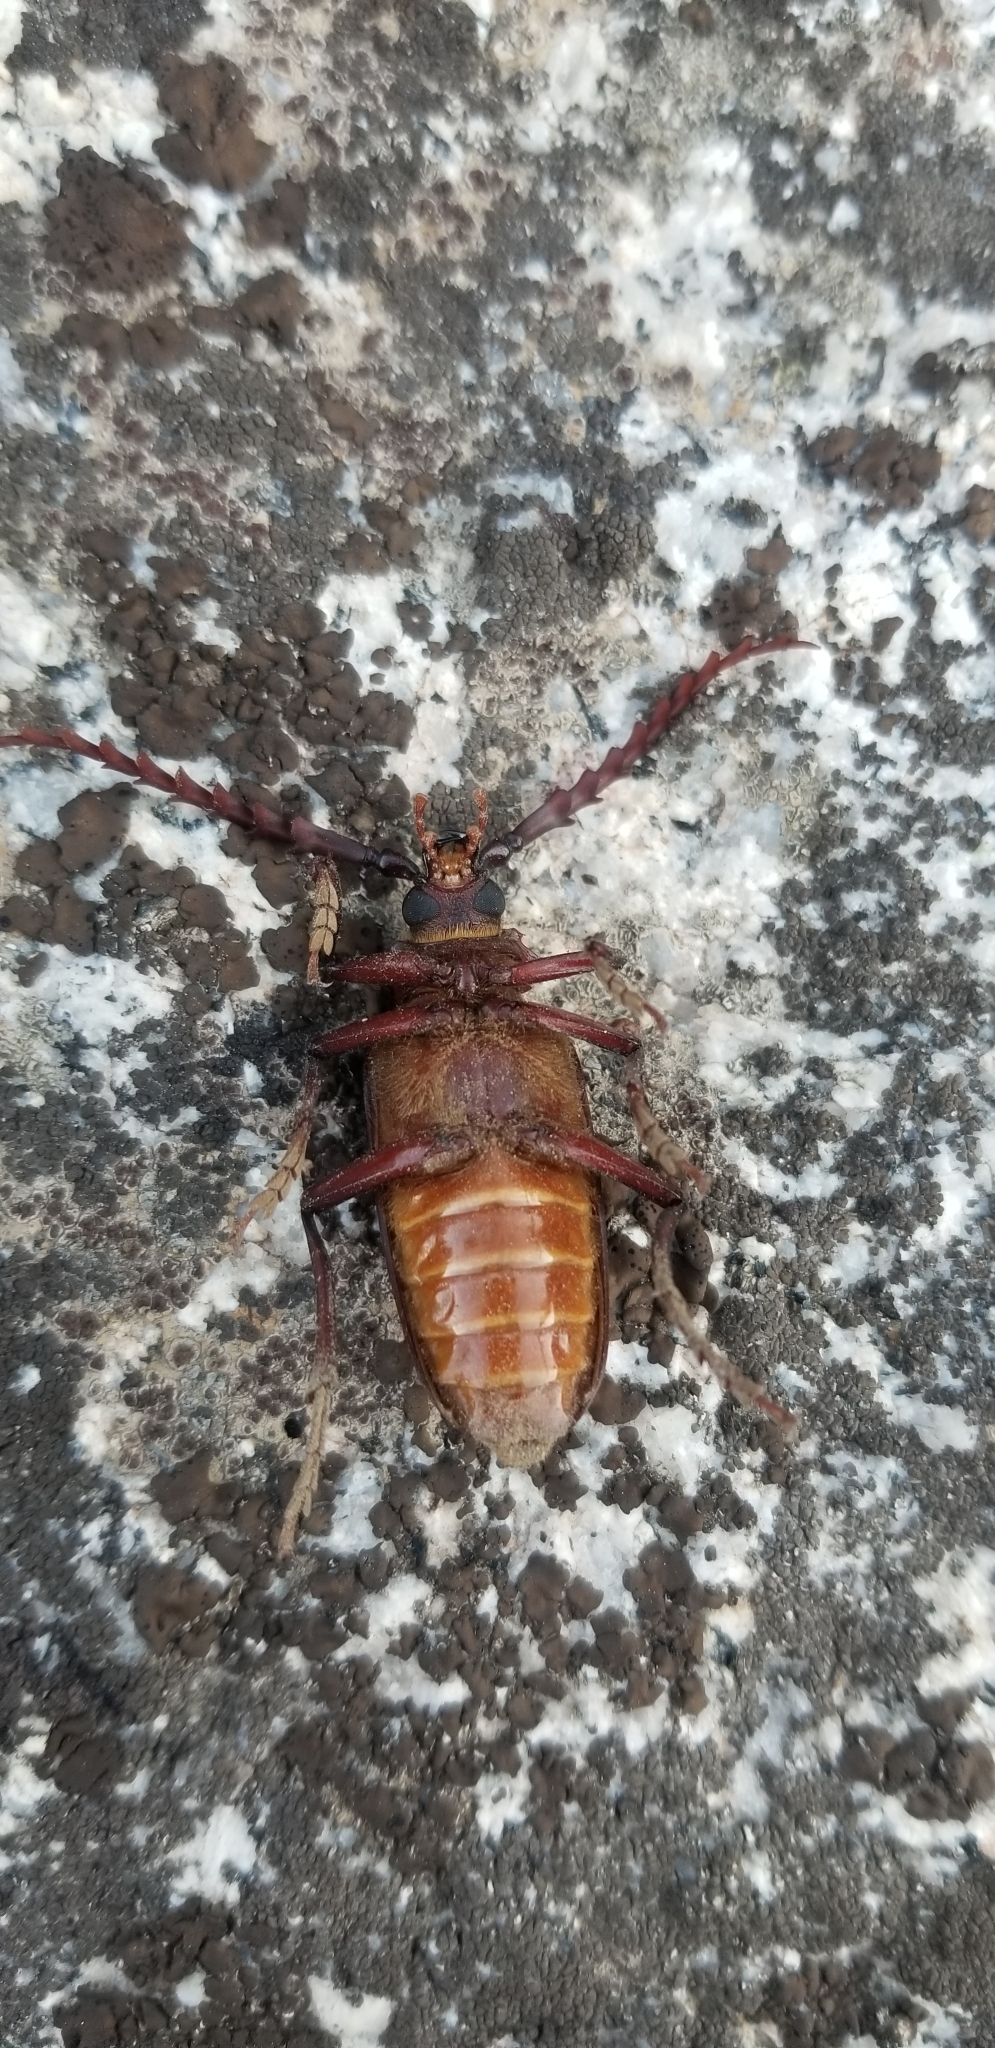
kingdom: Animalia
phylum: Arthropoda
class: Insecta
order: Coleoptera
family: Cerambycidae
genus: Prionus
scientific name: Prionus californicus
